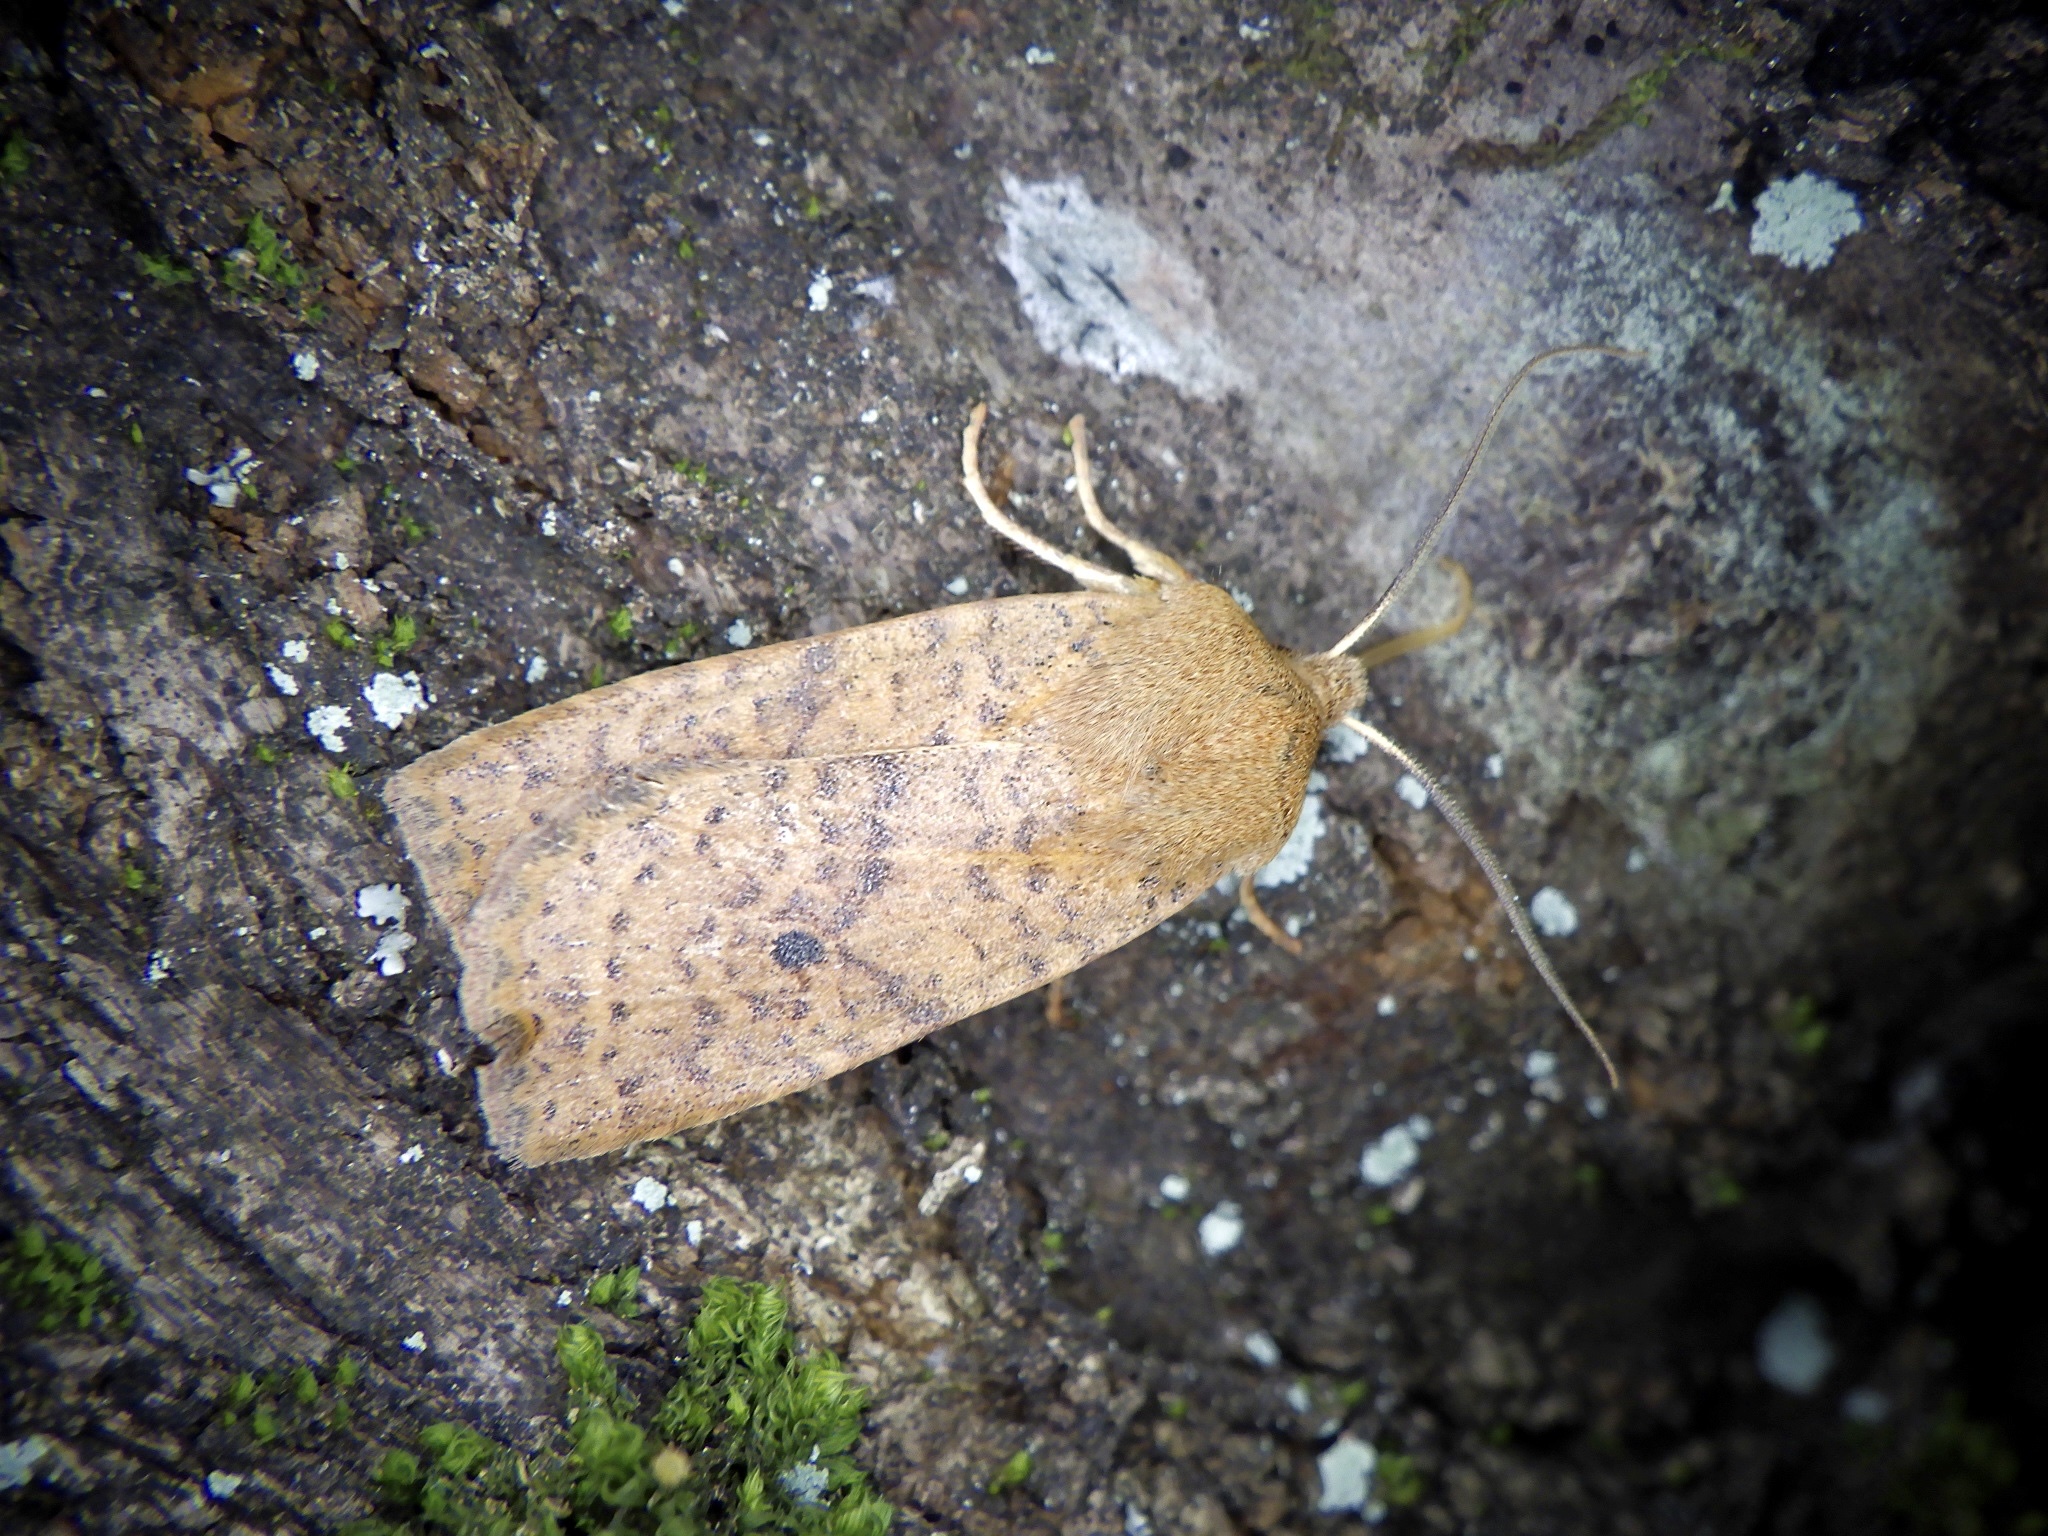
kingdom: Animalia
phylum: Arthropoda
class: Insecta
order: Lepidoptera
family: Noctuidae
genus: Conistra
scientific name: Conistra albipuncta
